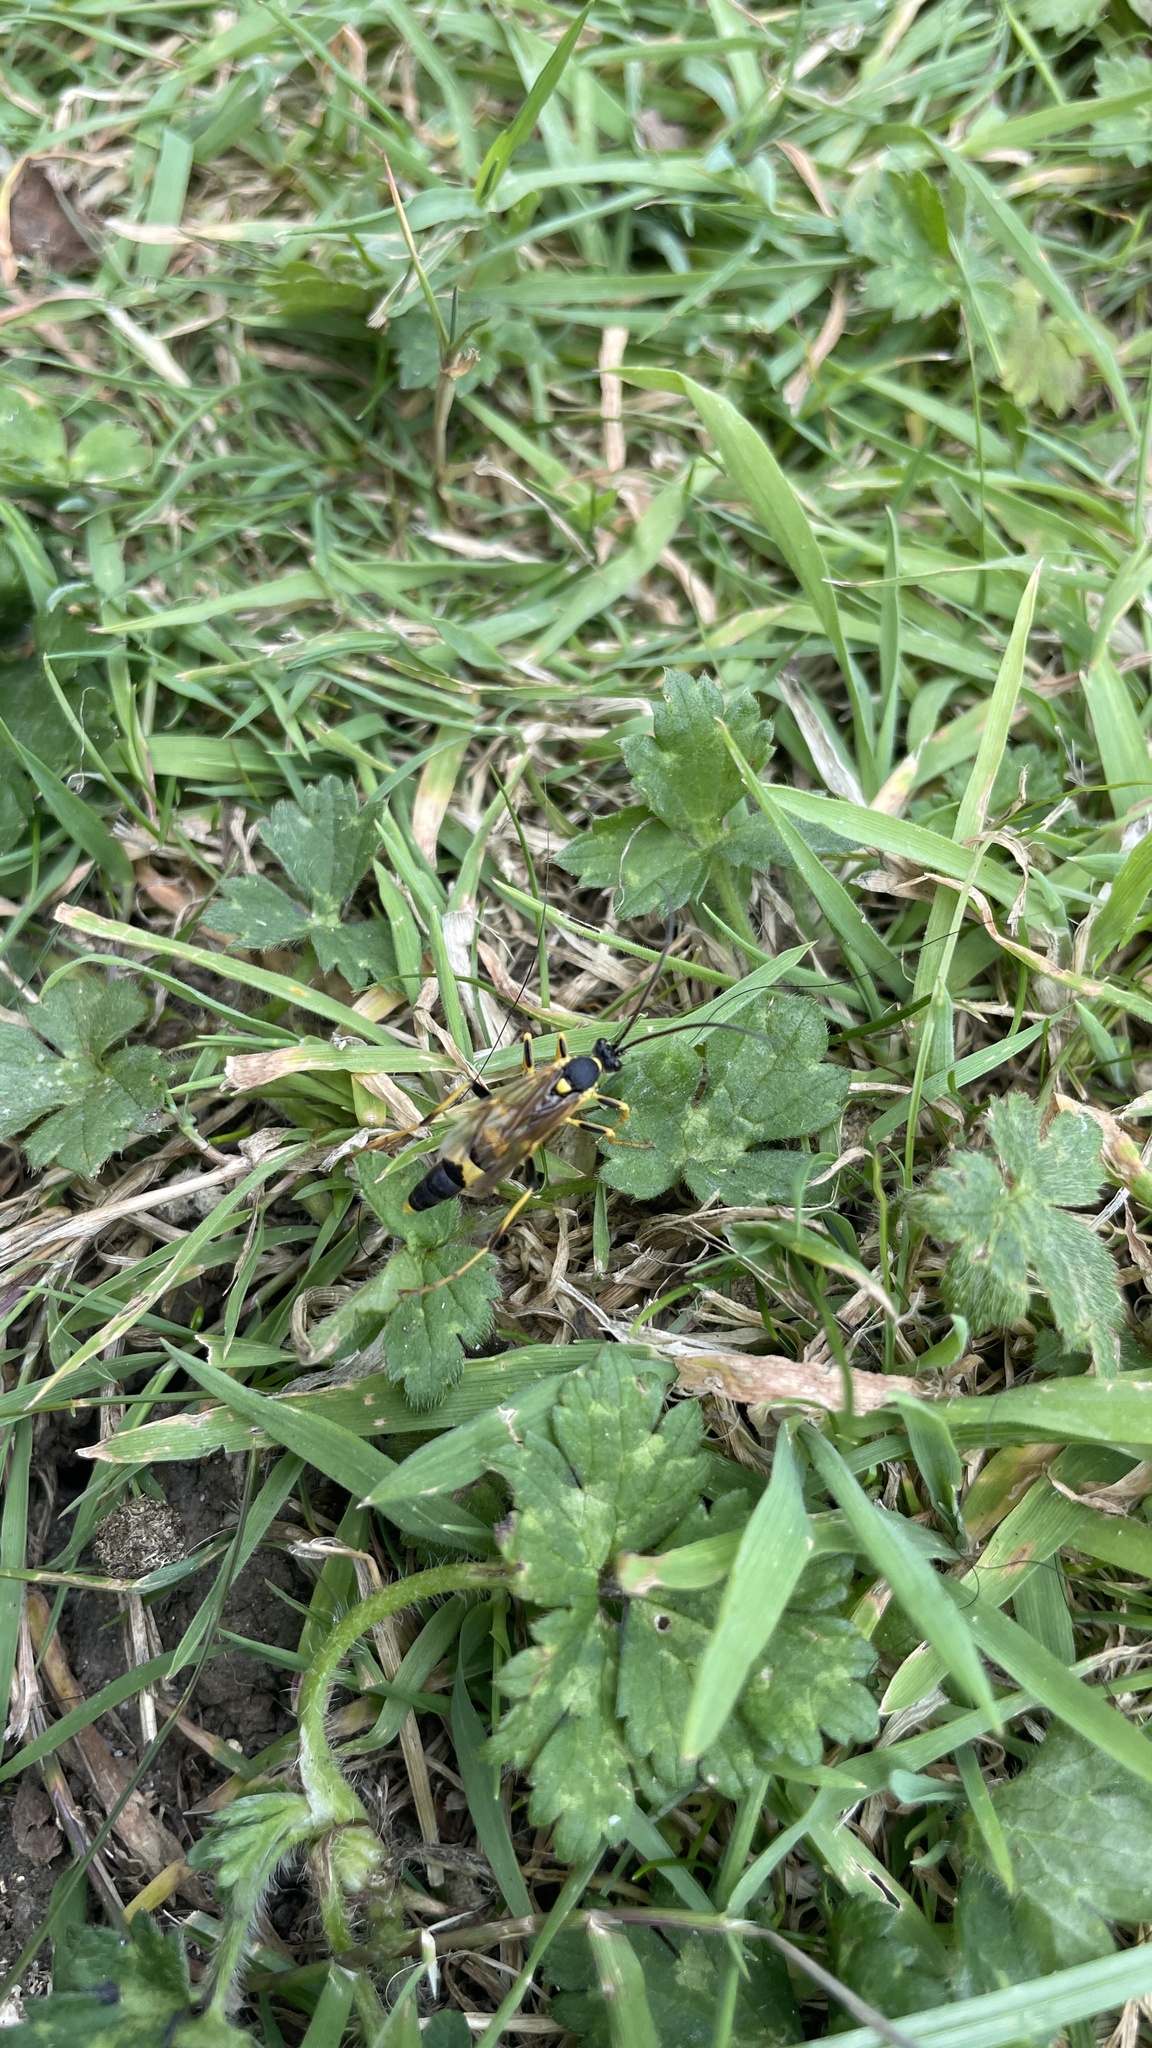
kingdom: Animalia
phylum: Arthropoda
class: Insecta
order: Hymenoptera
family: Ichneumonidae
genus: Amblyteles
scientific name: Amblyteles armatorius
